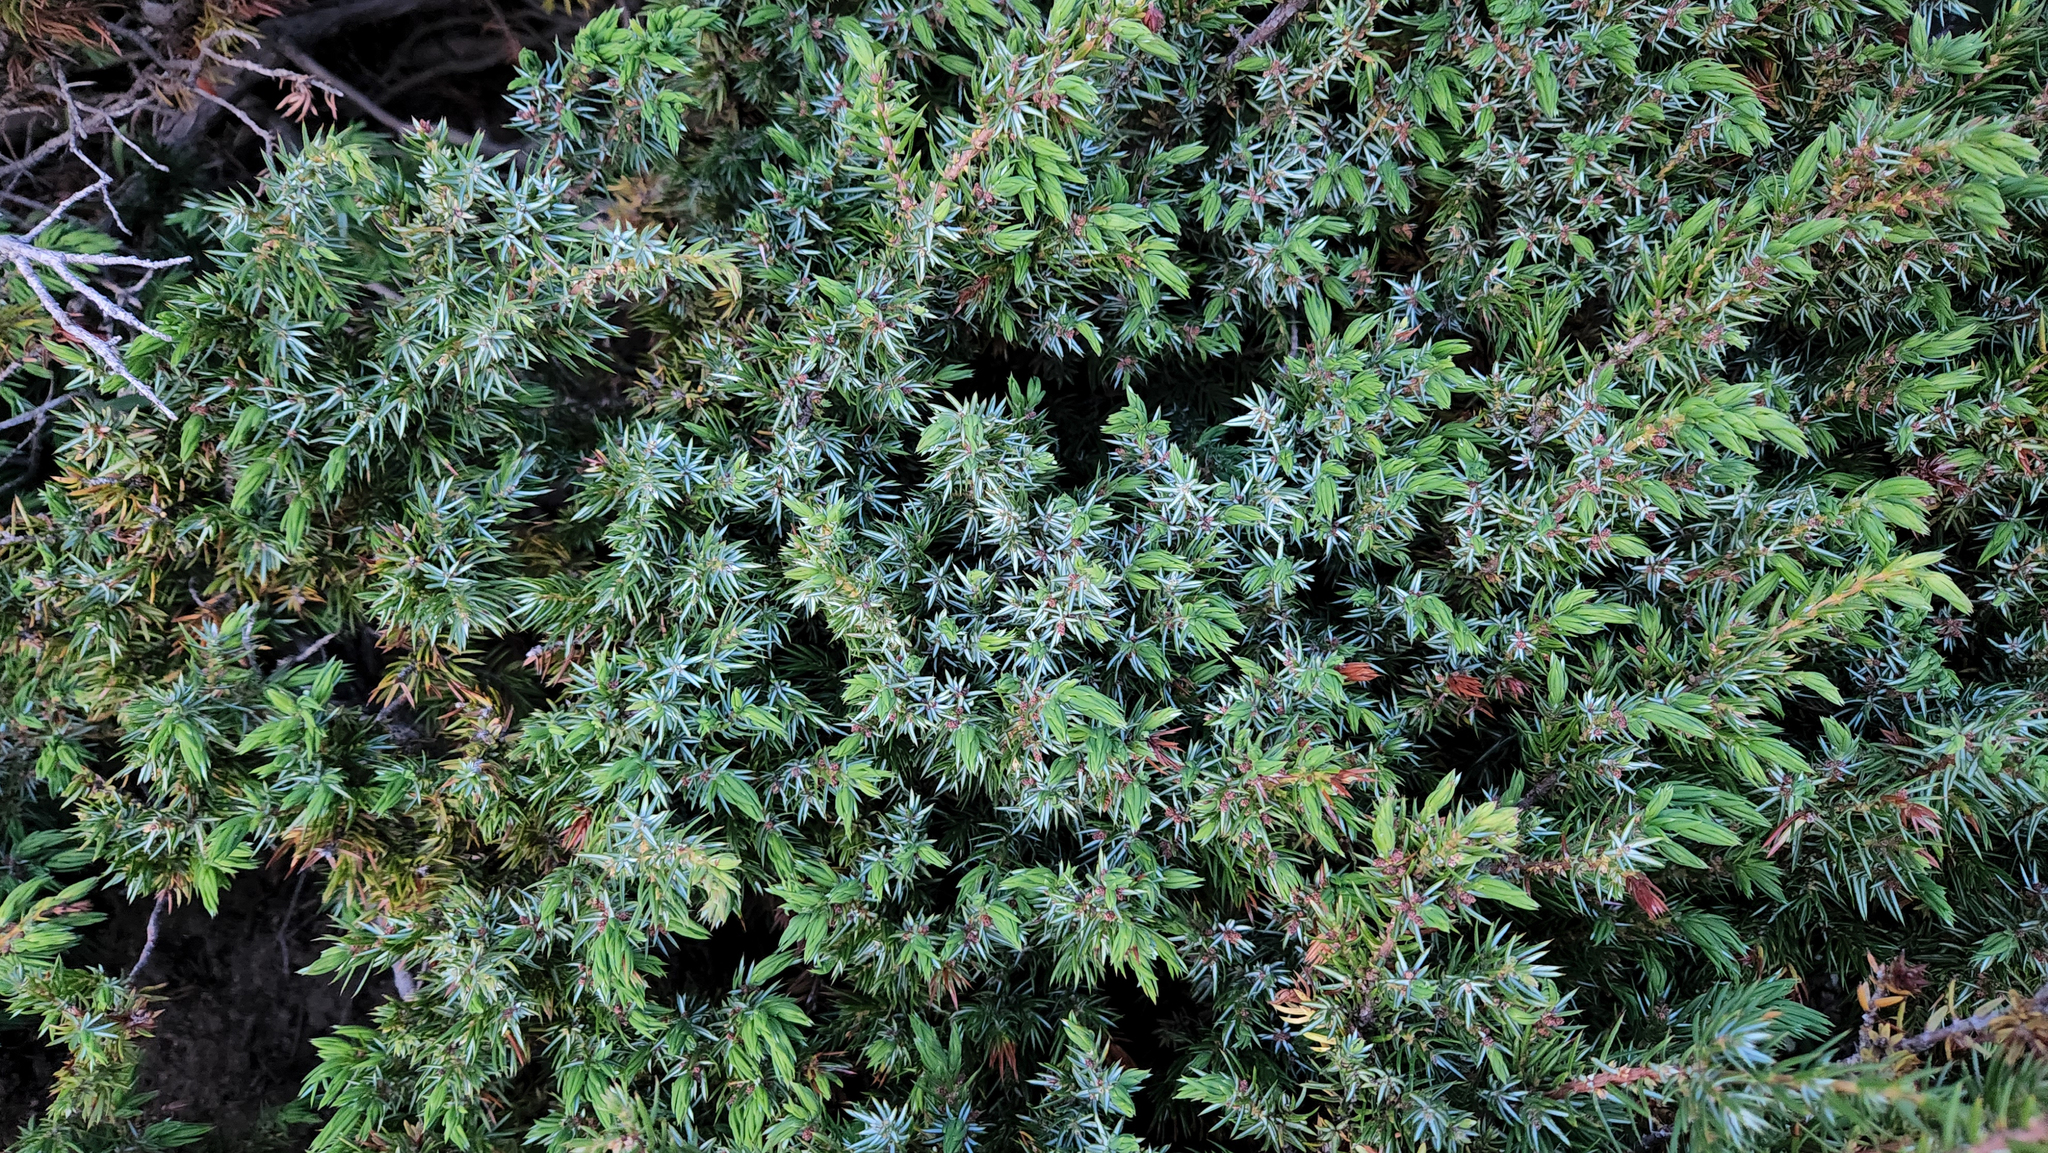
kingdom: Plantae
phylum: Tracheophyta
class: Pinopsida
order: Pinales
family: Cupressaceae
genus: Juniperus
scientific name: Juniperus communis
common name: Common juniper
